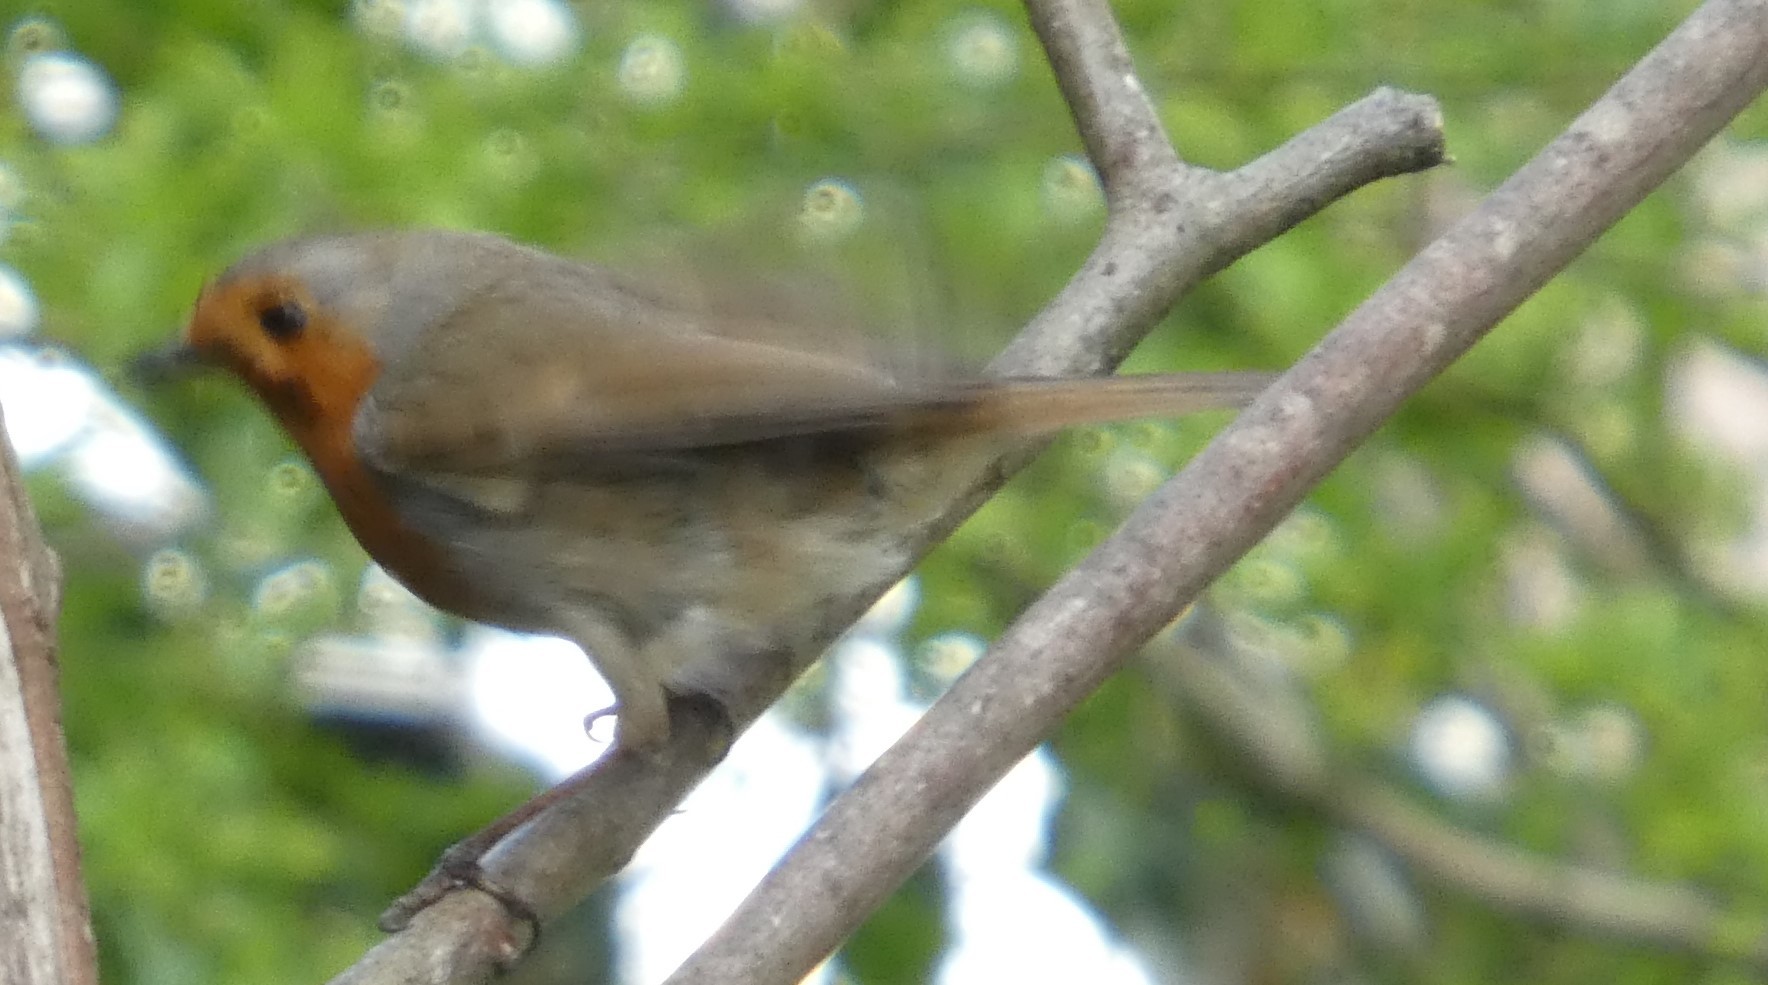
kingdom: Animalia
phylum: Chordata
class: Aves
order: Passeriformes
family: Muscicapidae
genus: Erithacus
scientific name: Erithacus rubecula
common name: European robin
